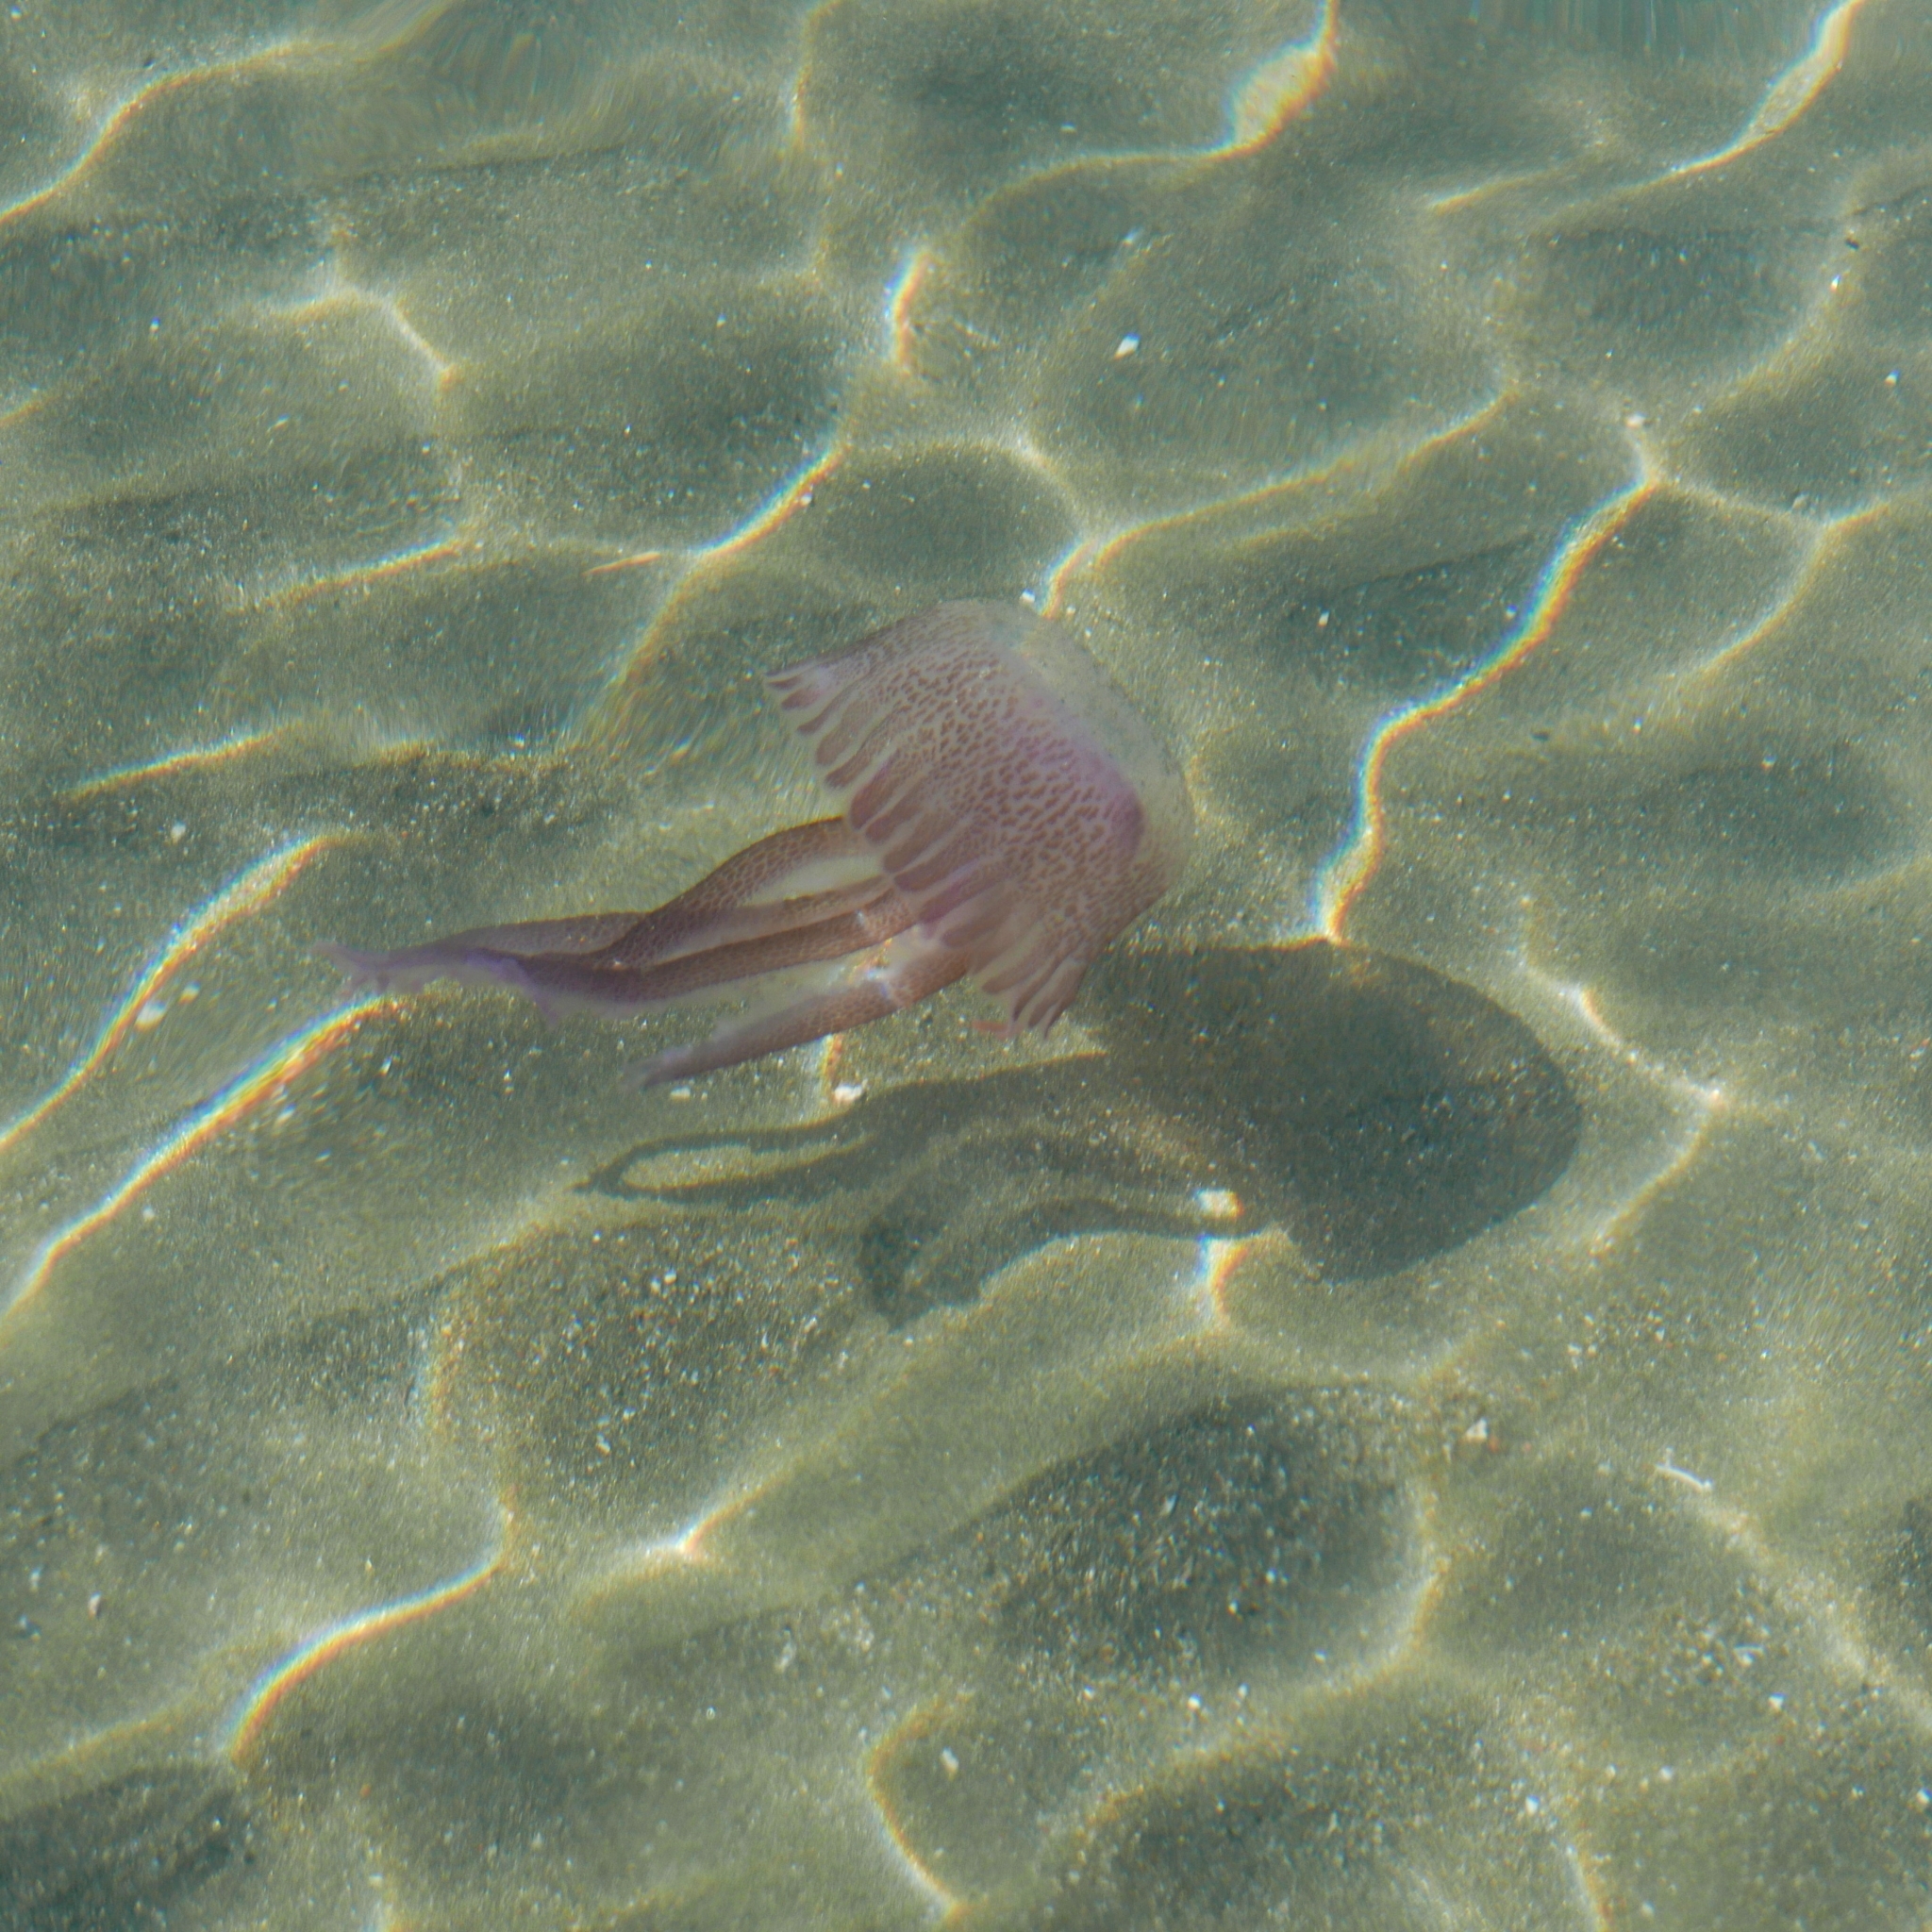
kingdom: Animalia
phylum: Cnidaria
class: Scyphozoa
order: Semaeostomeae
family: Pelagiidae
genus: Pelagia
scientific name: Pelagia noctiluca
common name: Mauve stinger
